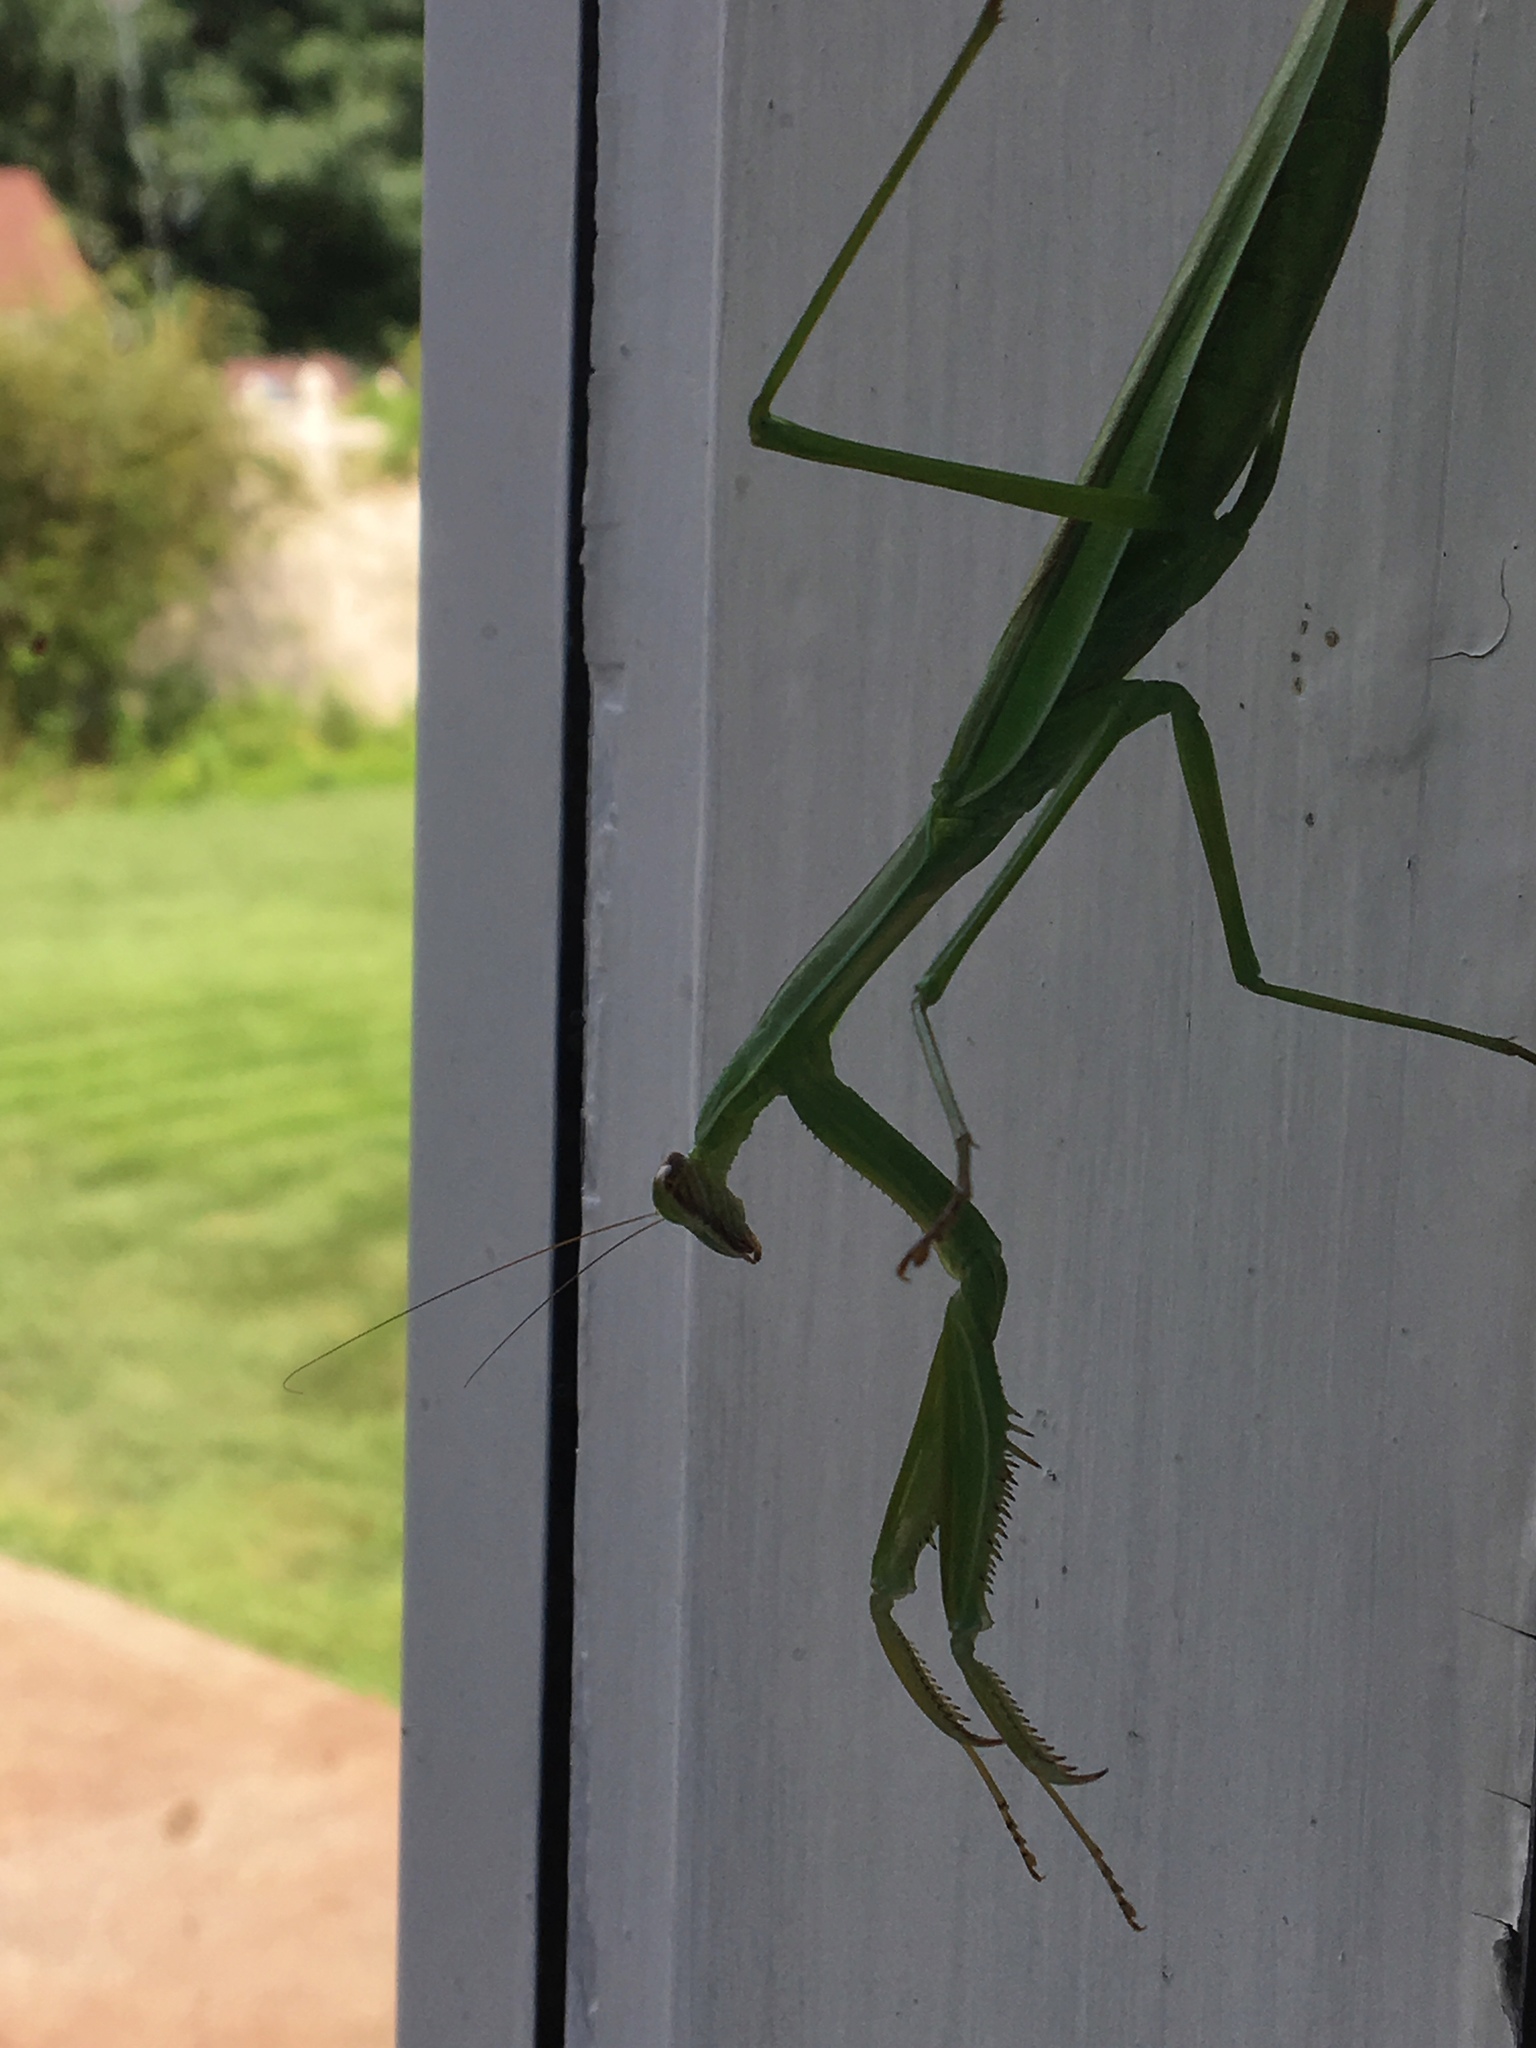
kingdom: Animalia
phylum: Arthropoda
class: Insecta
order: Mantodea
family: Mantidae
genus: Tenodera
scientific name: Tenodera sinensis
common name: Chinese mantis
